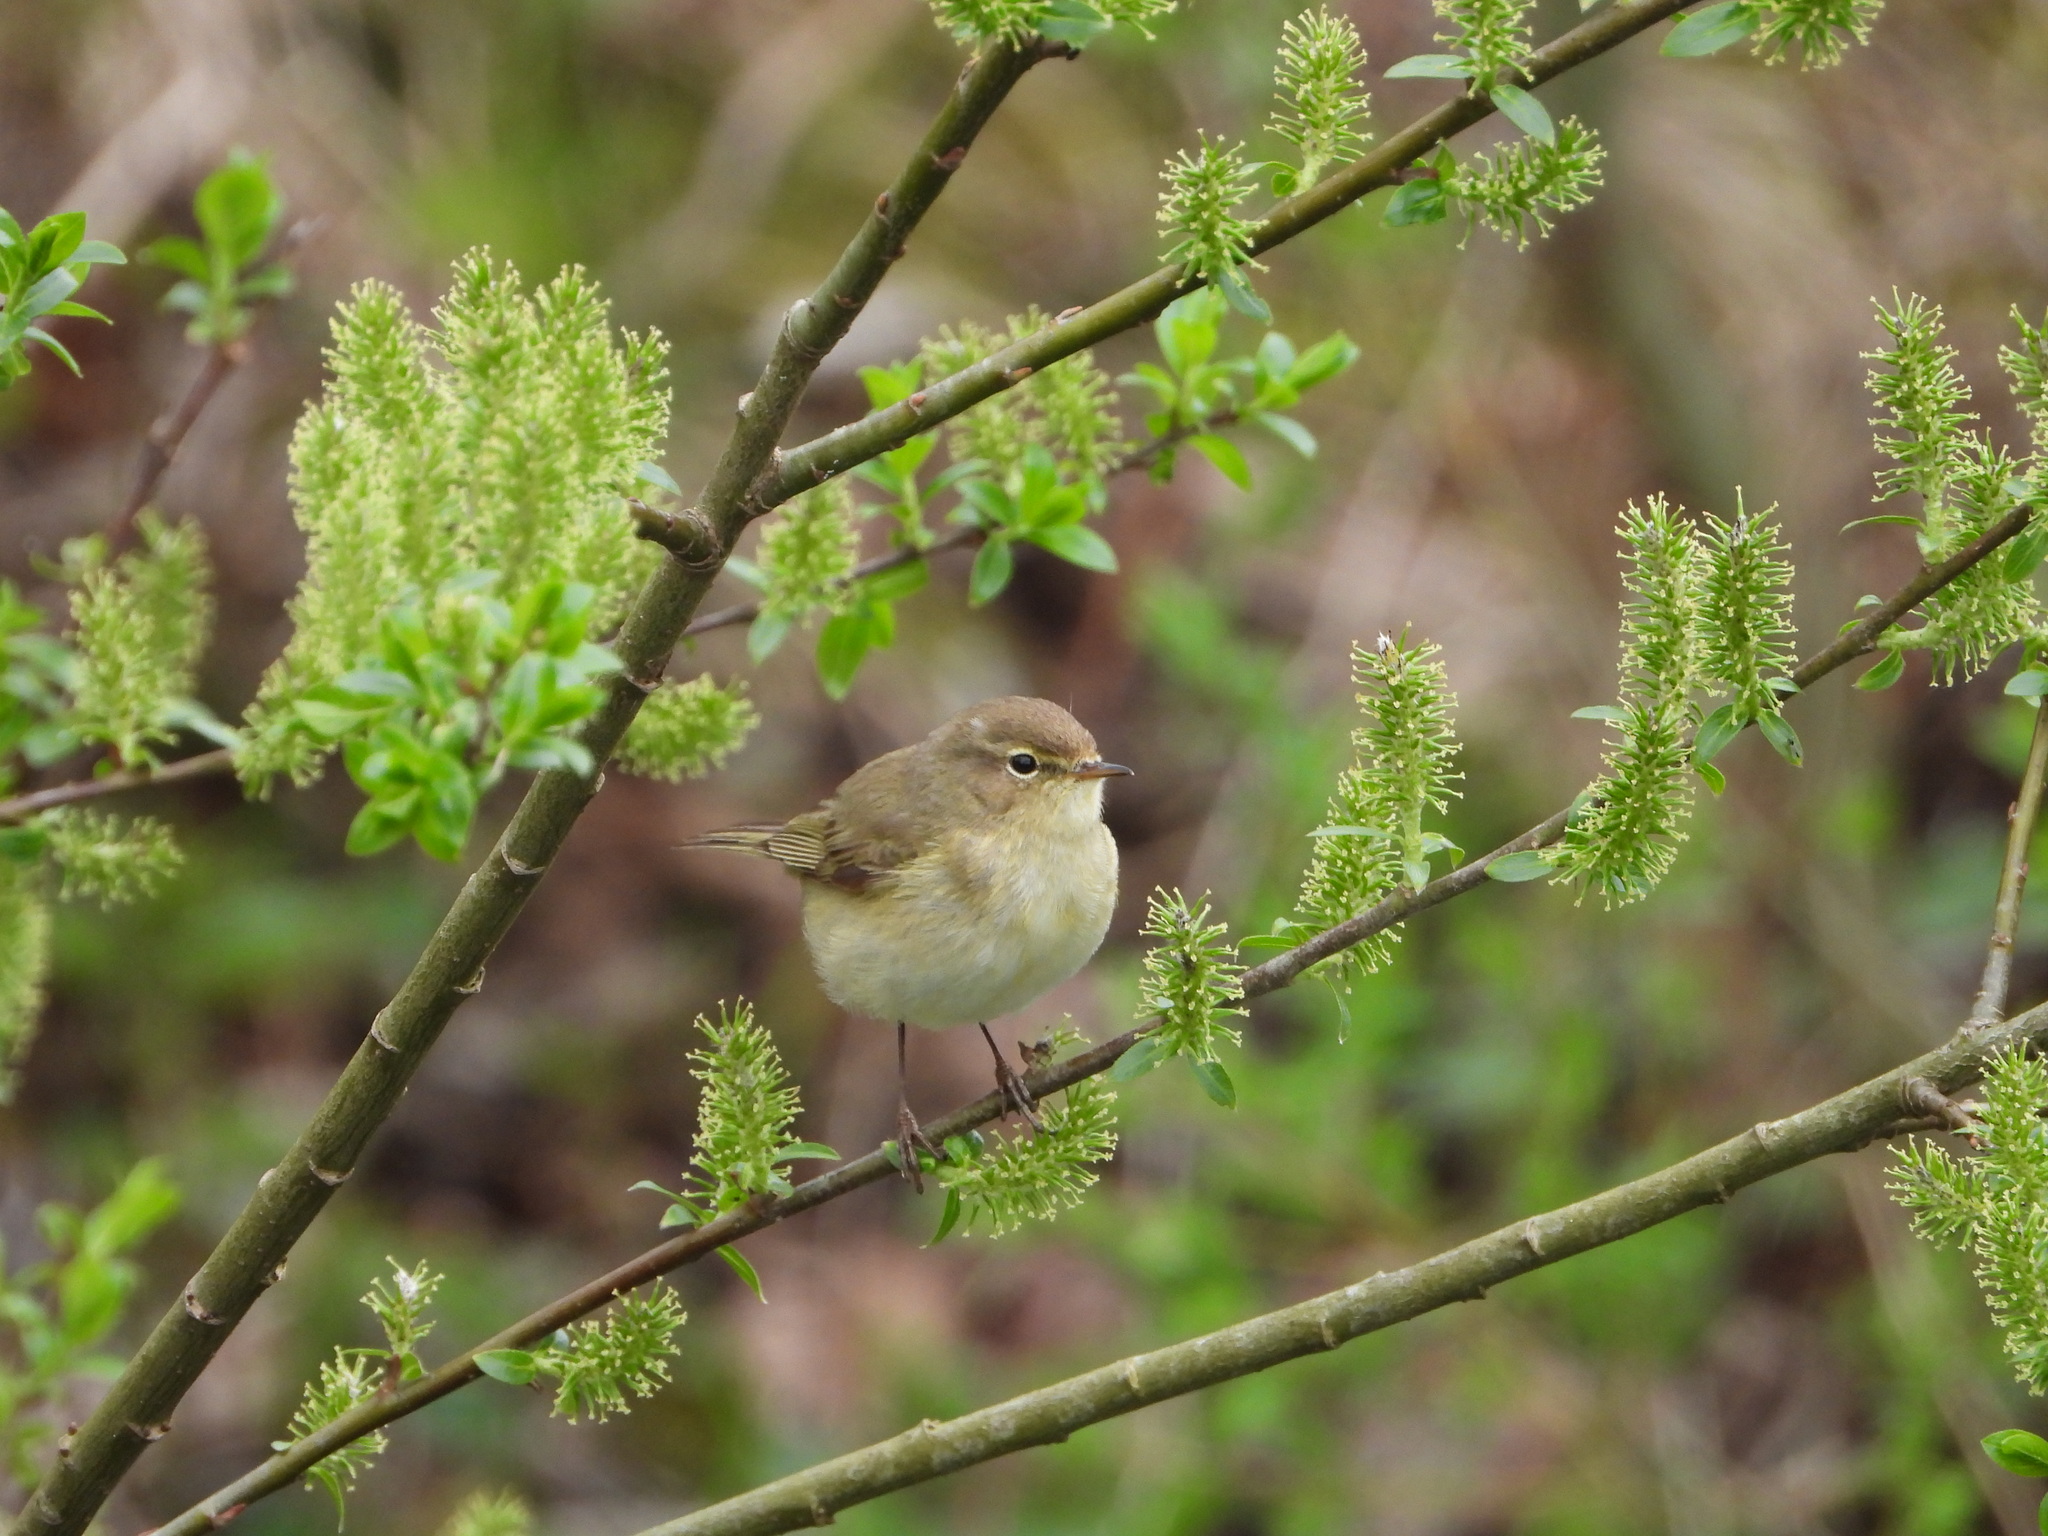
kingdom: Animalia
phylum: Chordata
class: Aves
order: Passeriformes
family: Phylloscopidae
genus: Phylloscopus
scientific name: Phylloscopus collybita
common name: Common chiffchaff
